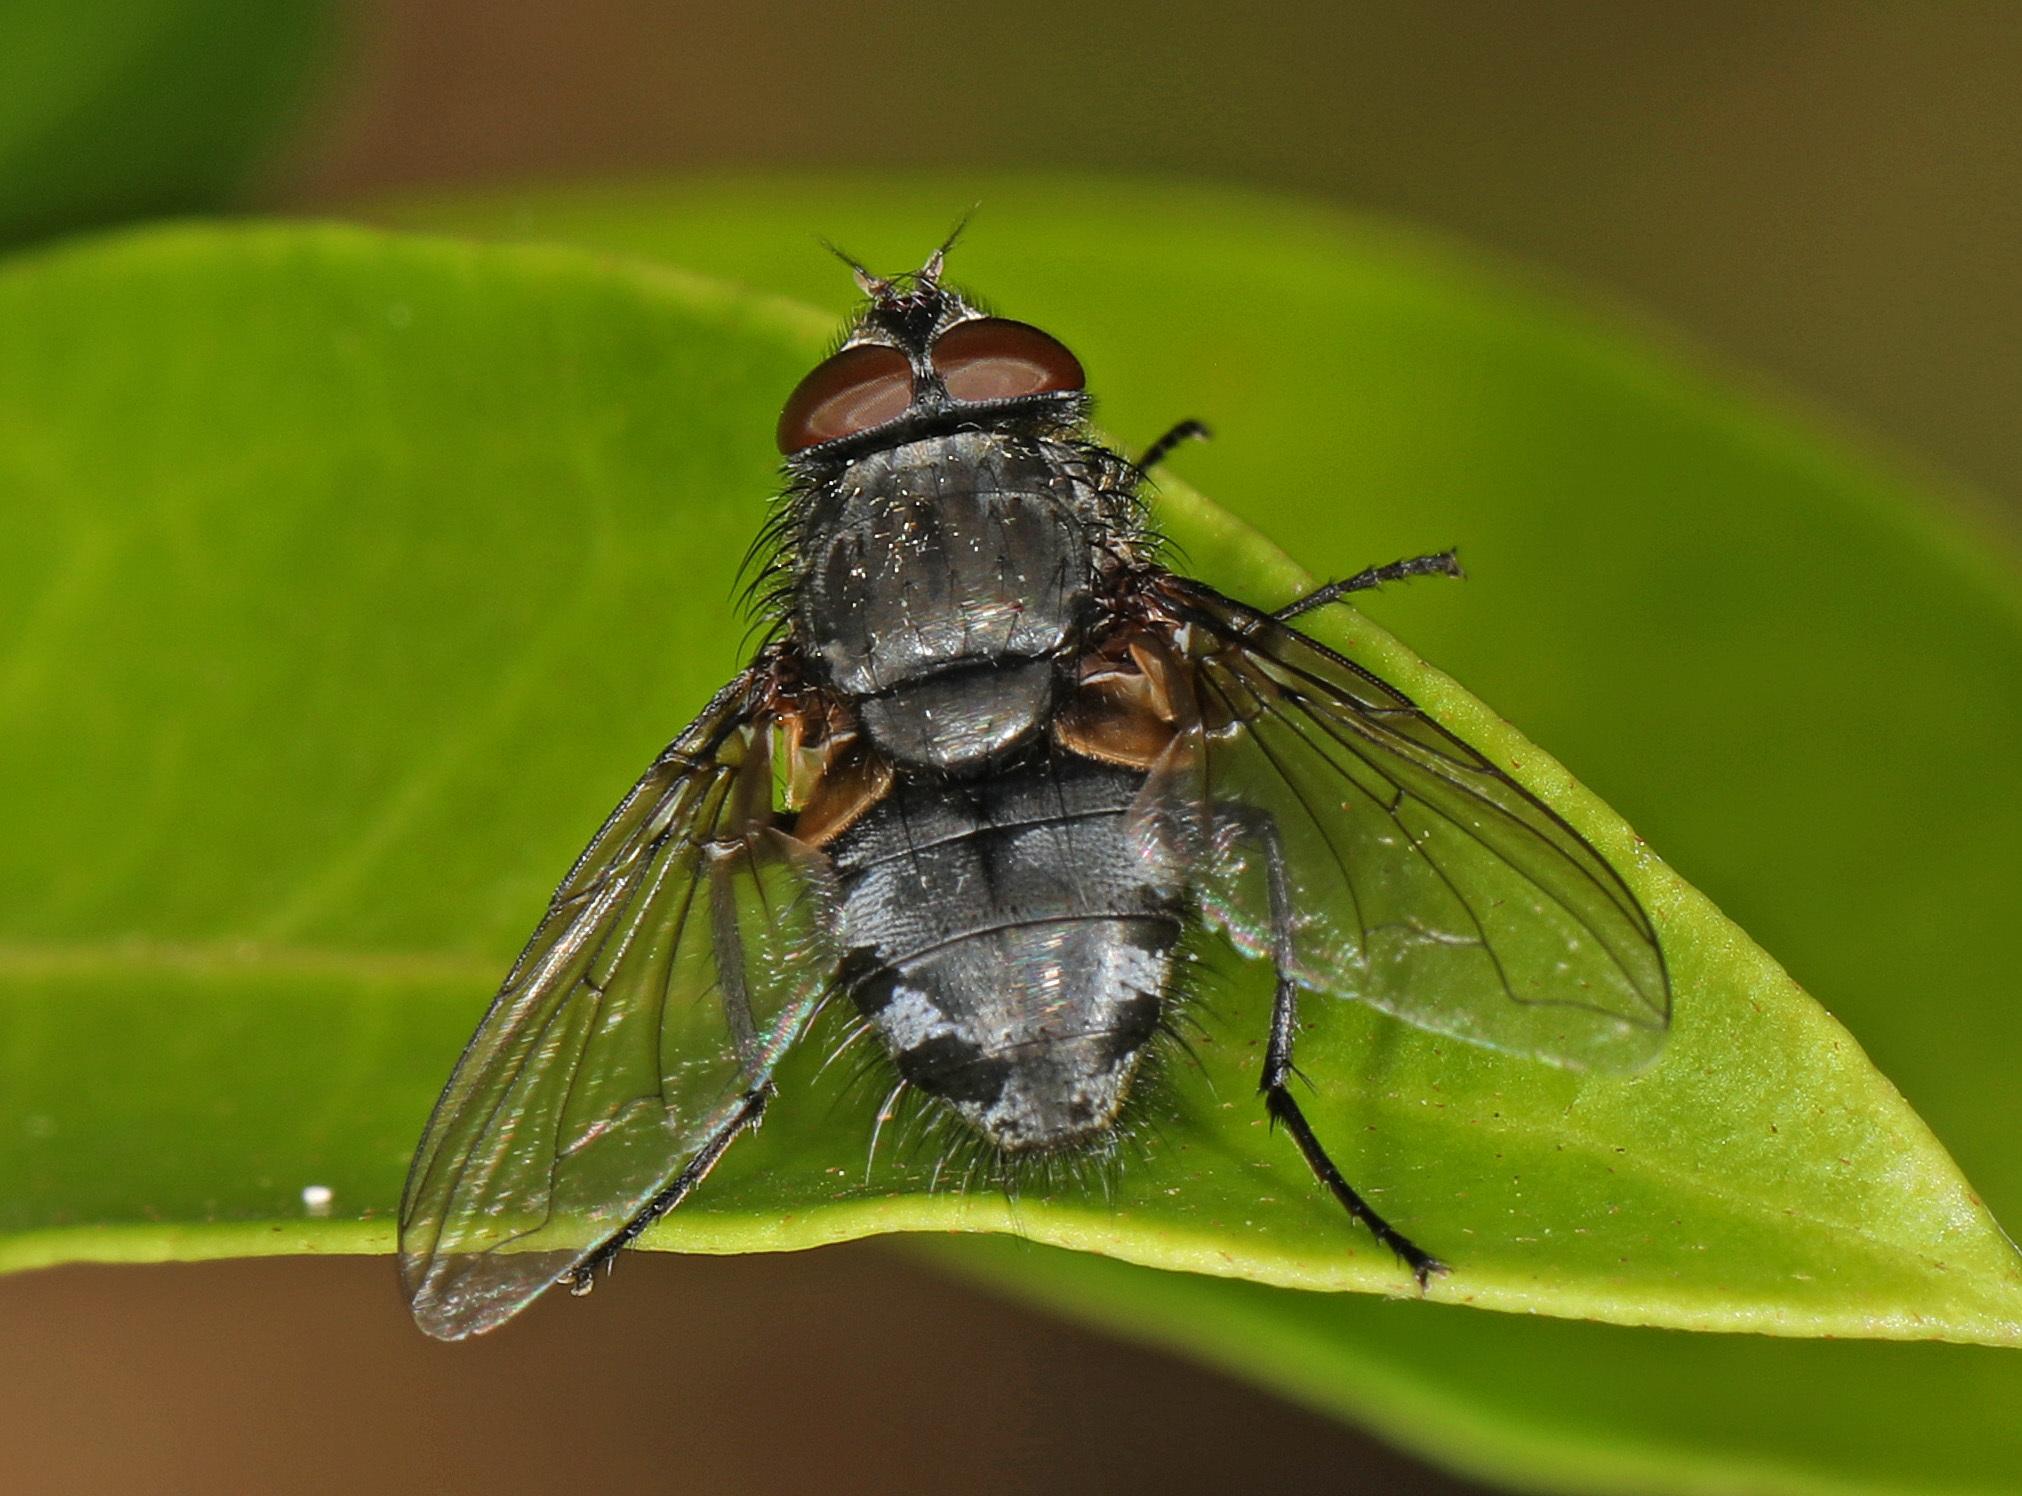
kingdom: Animalia
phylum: Arthropoda
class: Insecta
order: Diptera
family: Polleniidae
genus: Pollenia
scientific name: Pollenia
